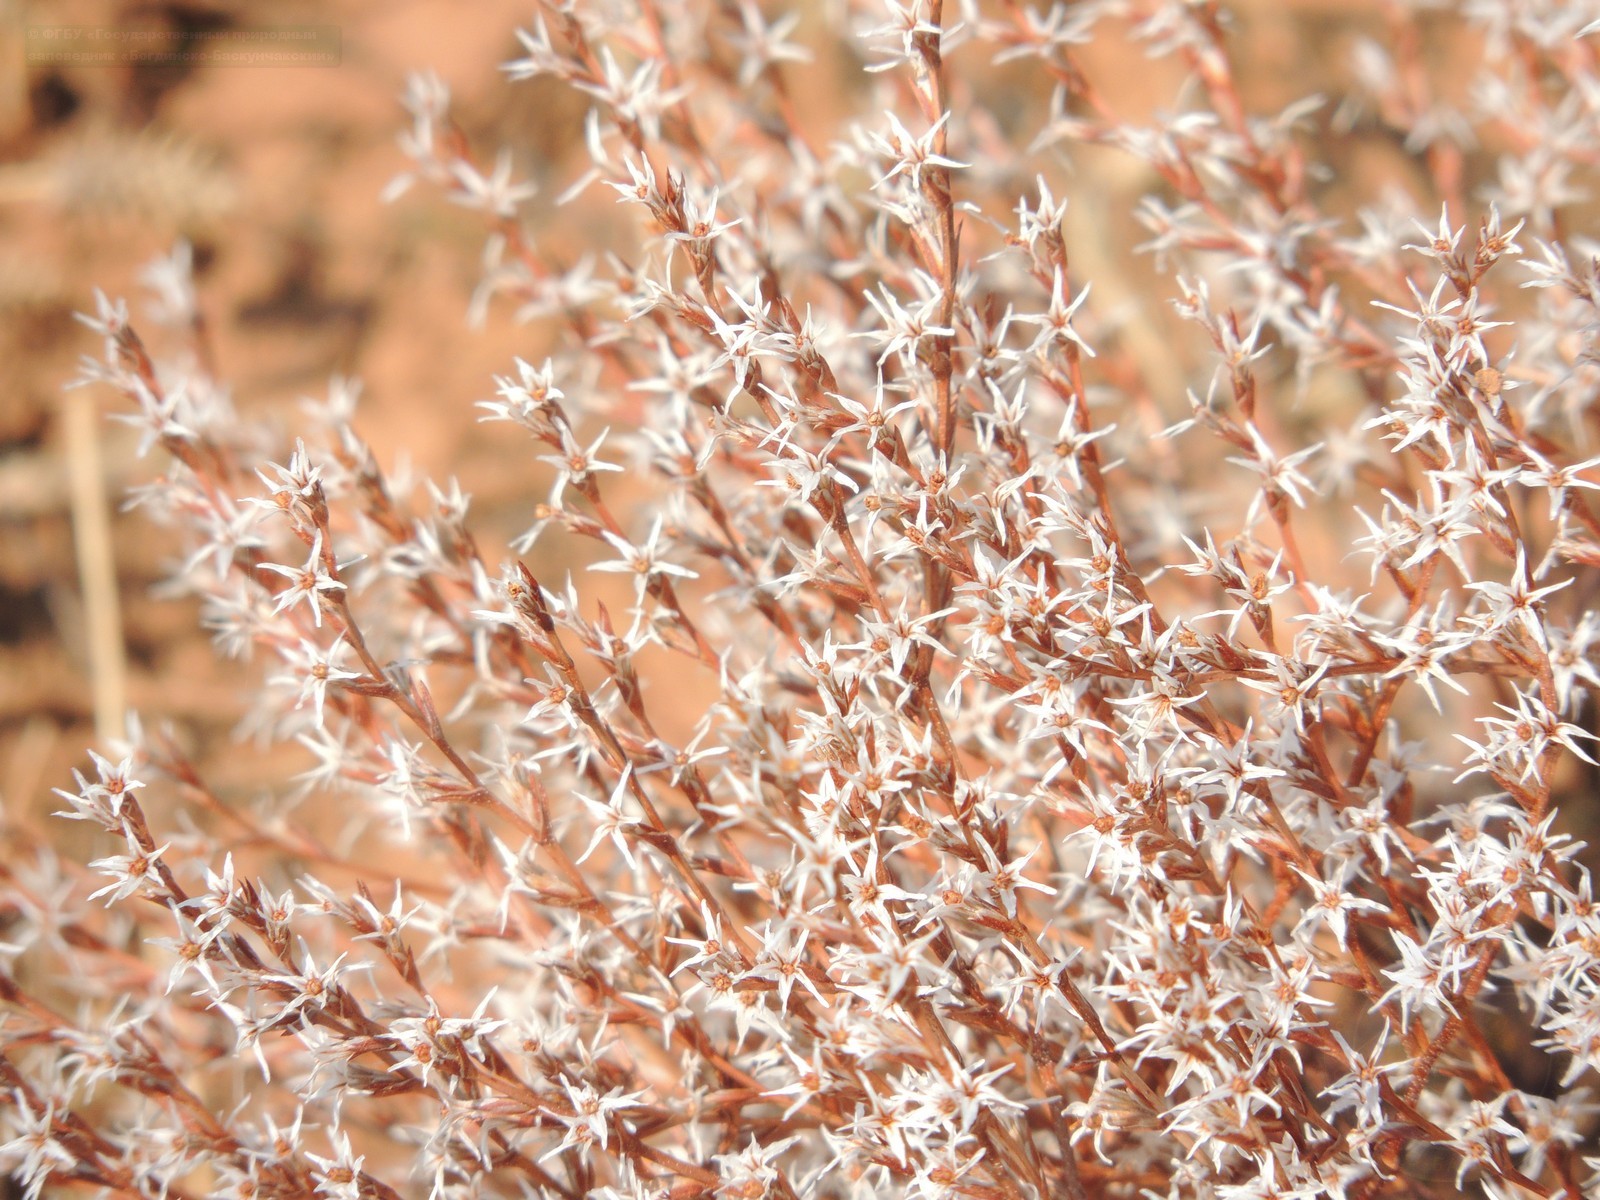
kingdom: Plantae
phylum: Tracheophyta
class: Magnoliopsida
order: Caryophyllales
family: Plumbaginaceae
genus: Goniolimon
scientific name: Goniolimon rubellum
